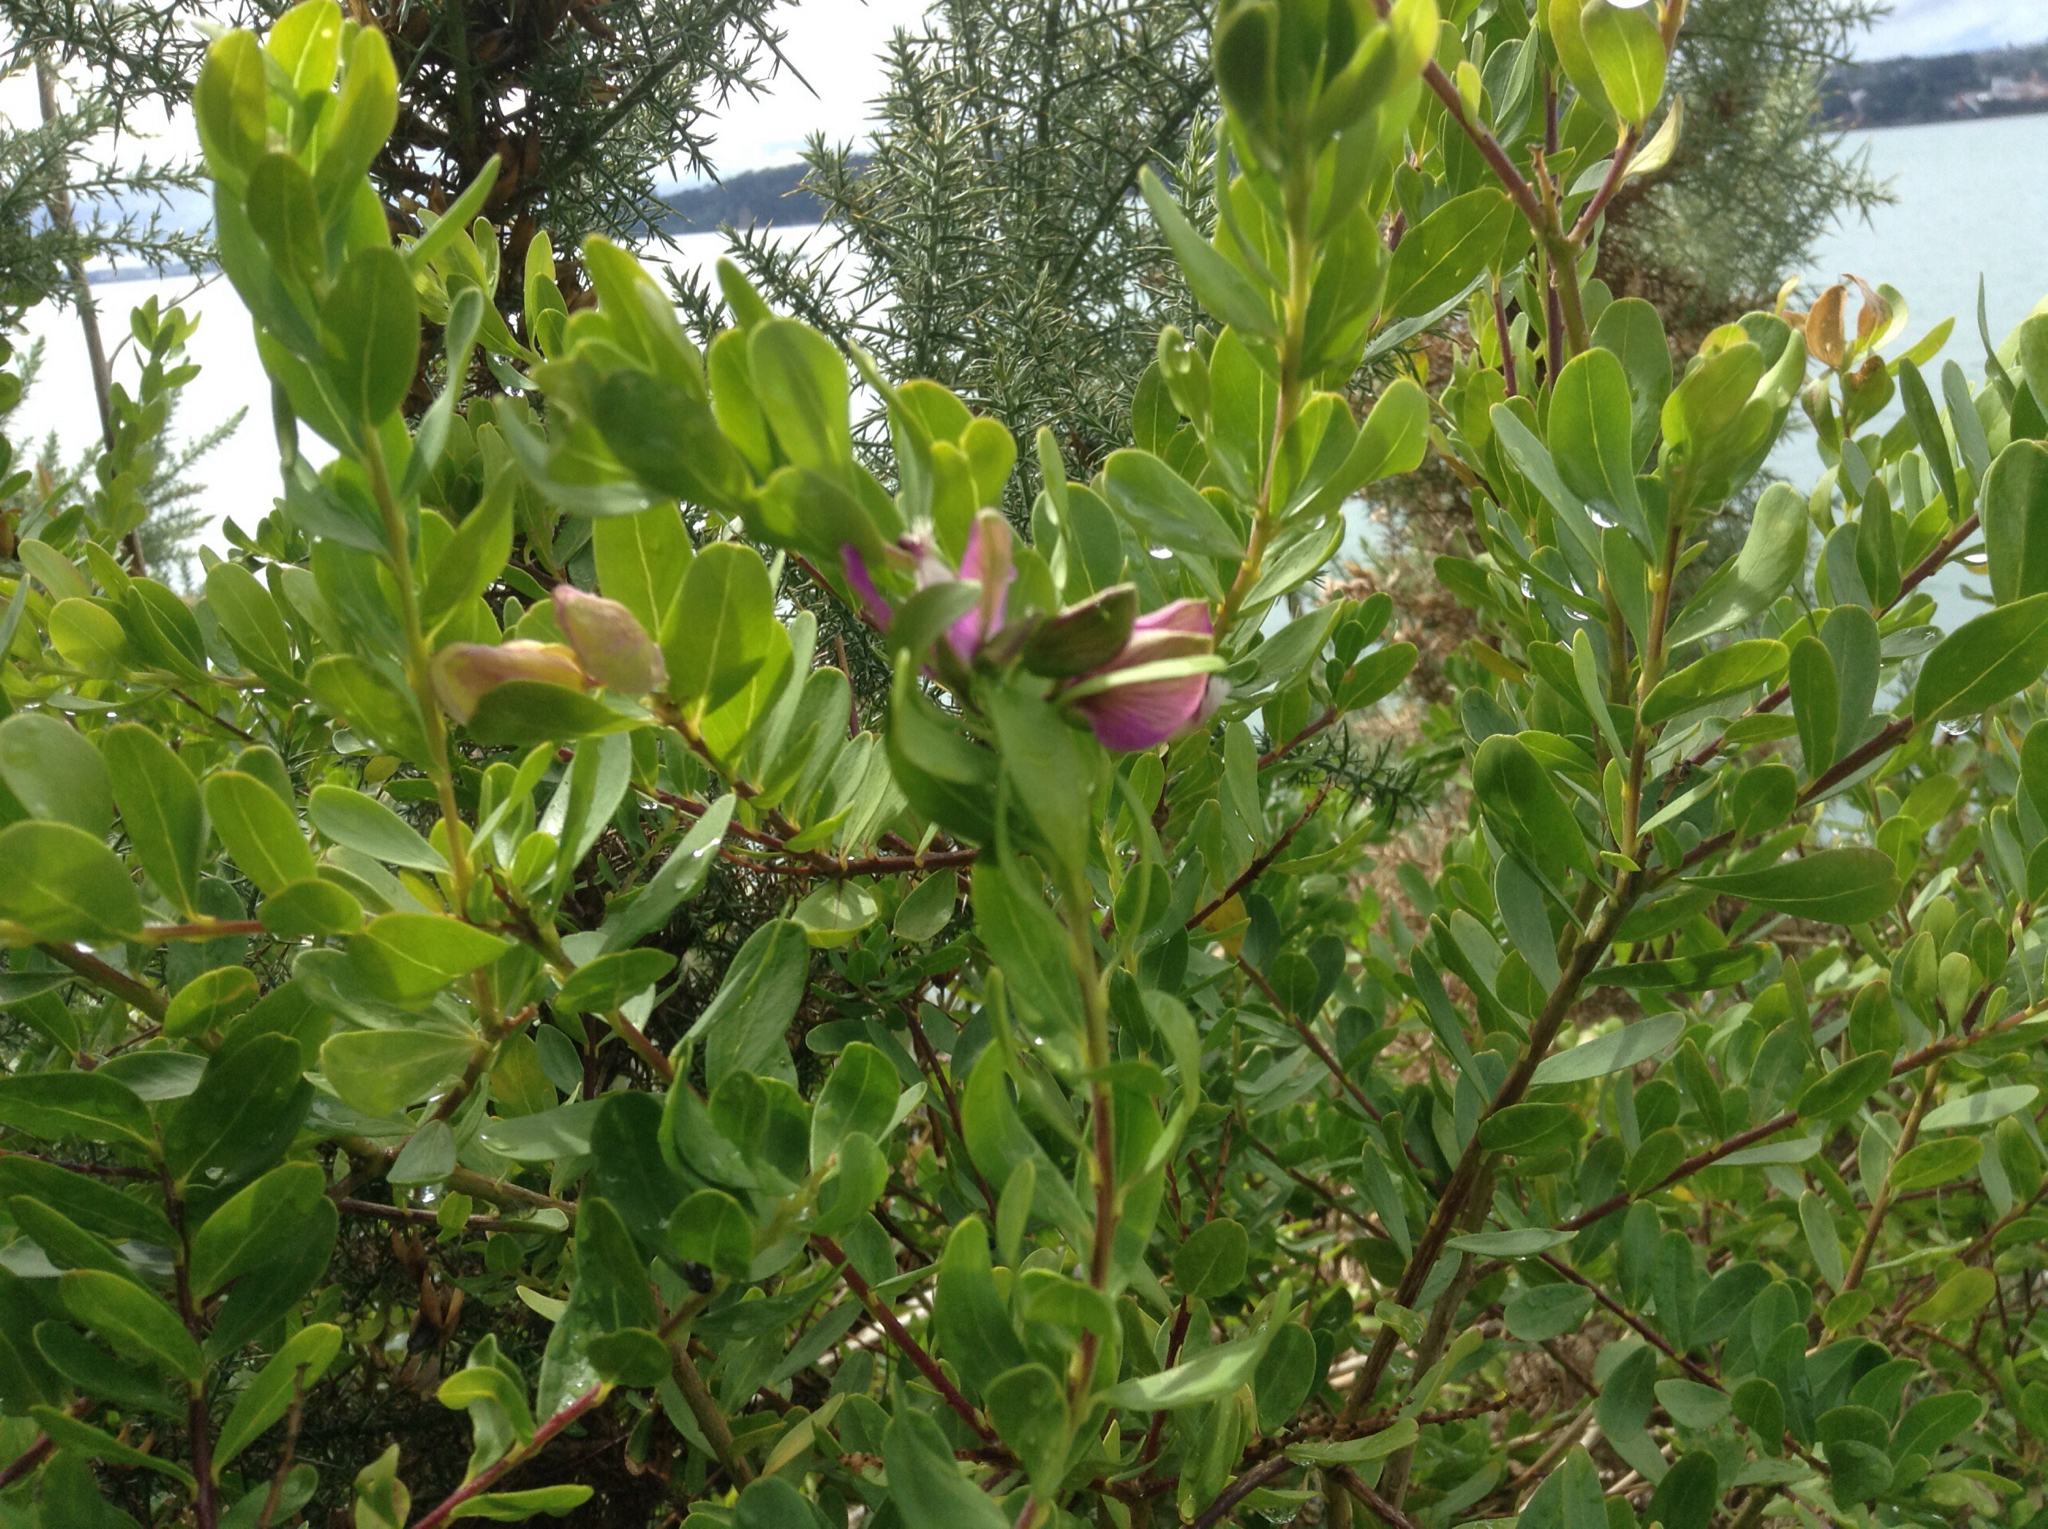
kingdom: Plantae
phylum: Tracheophyta
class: Magnoliopsida
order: Fabales
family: Polygalaceae
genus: Polygala
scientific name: Polygala myrtifolia
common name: Myrtle-leaf milkwort
